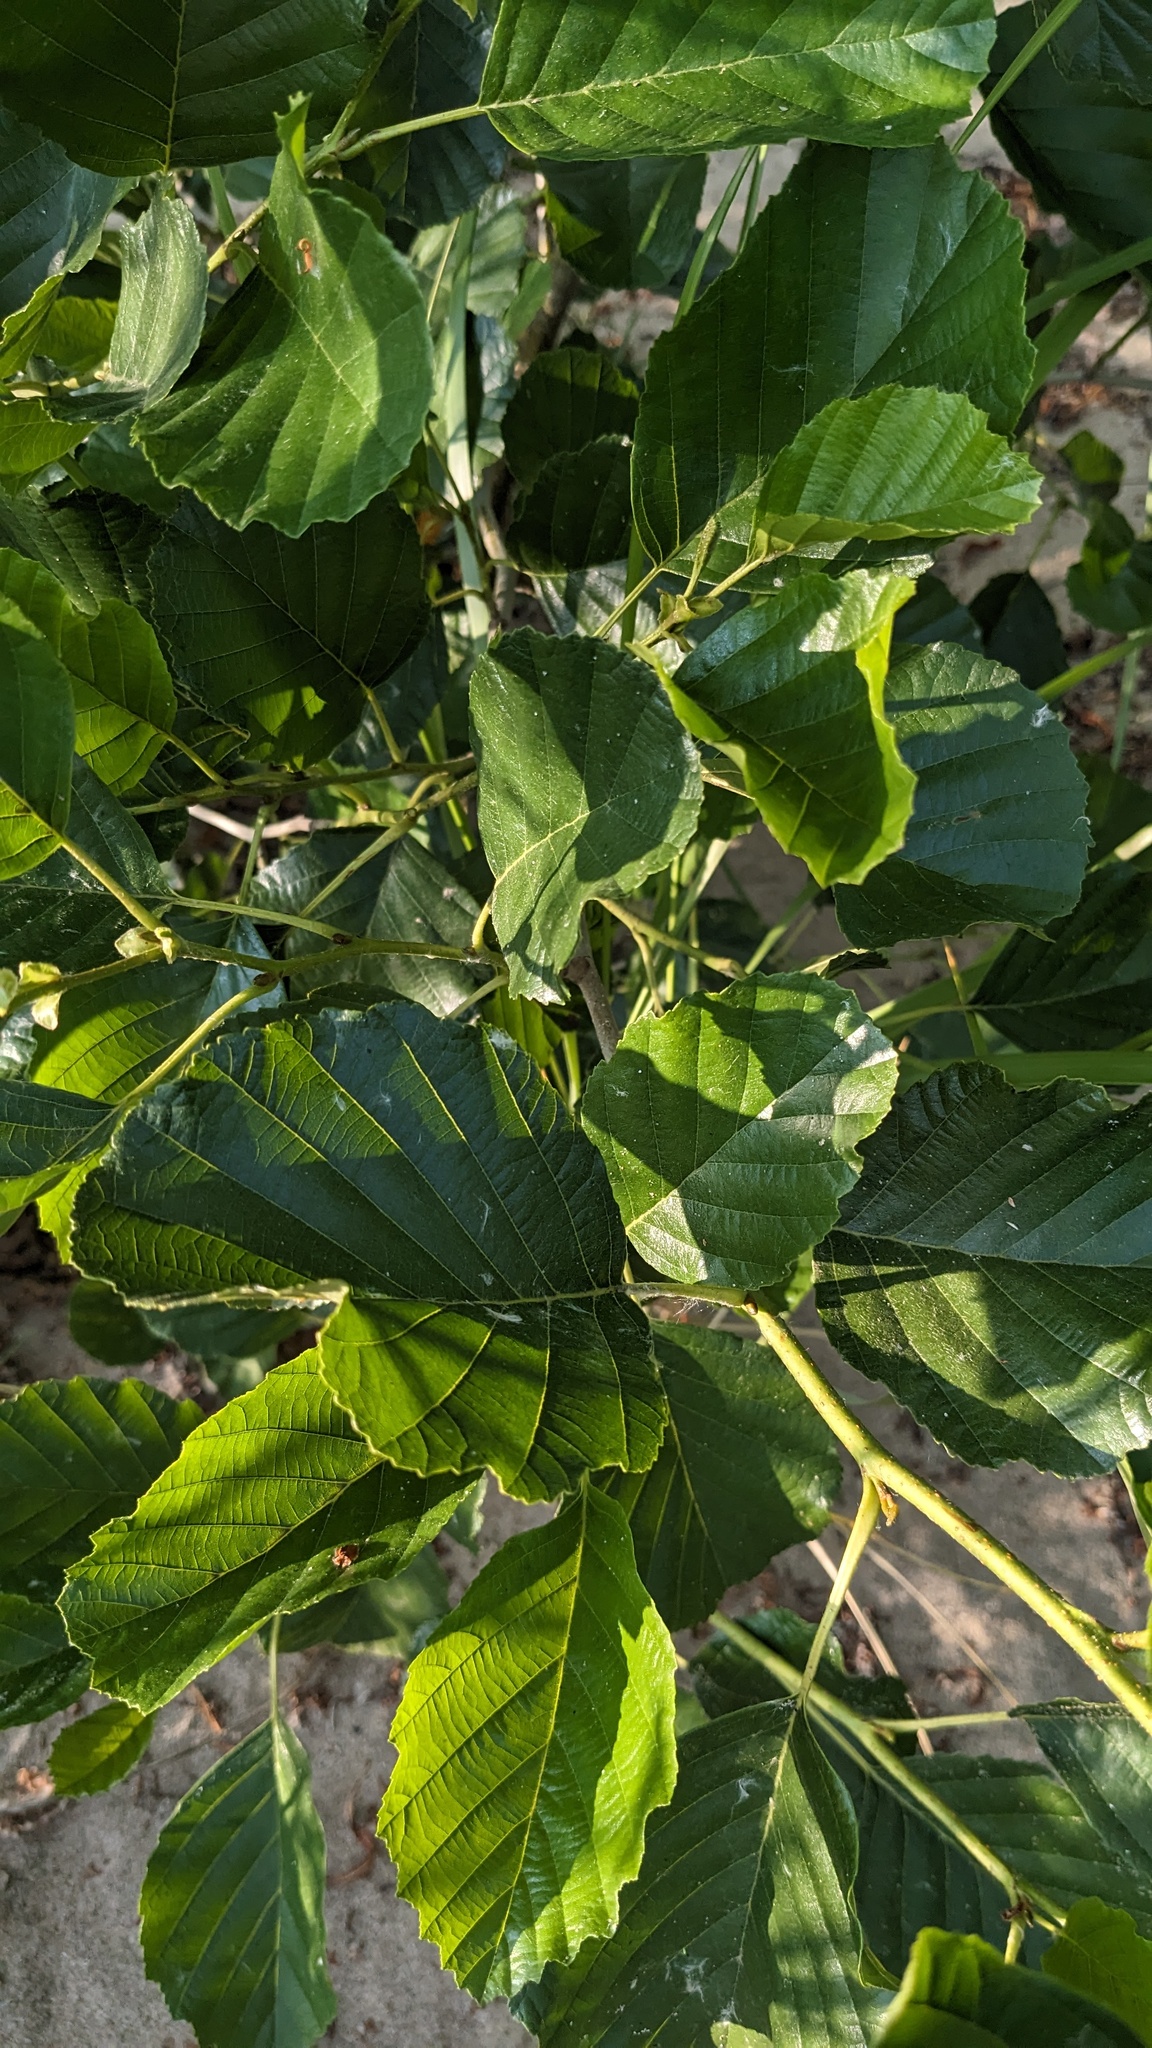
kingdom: Plantae
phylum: Tracheophyta
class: Magnoliopsida
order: Fagales
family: Betulaceae
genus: Alnus
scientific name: Alnus glutinosa
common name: Black alder
